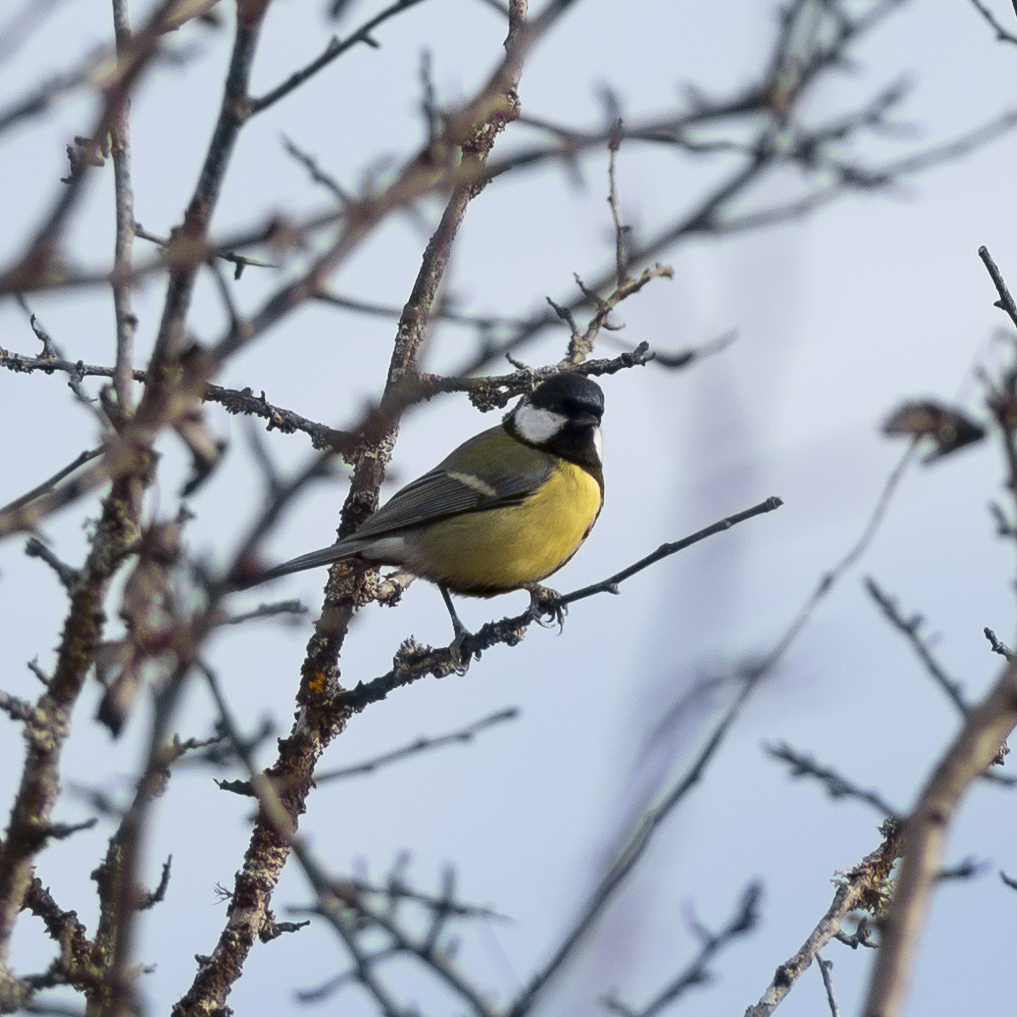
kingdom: Animalia
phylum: Chordata
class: Aves
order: Passeriformes
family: Paridae
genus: Parus
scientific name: Parus major
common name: Great tit
